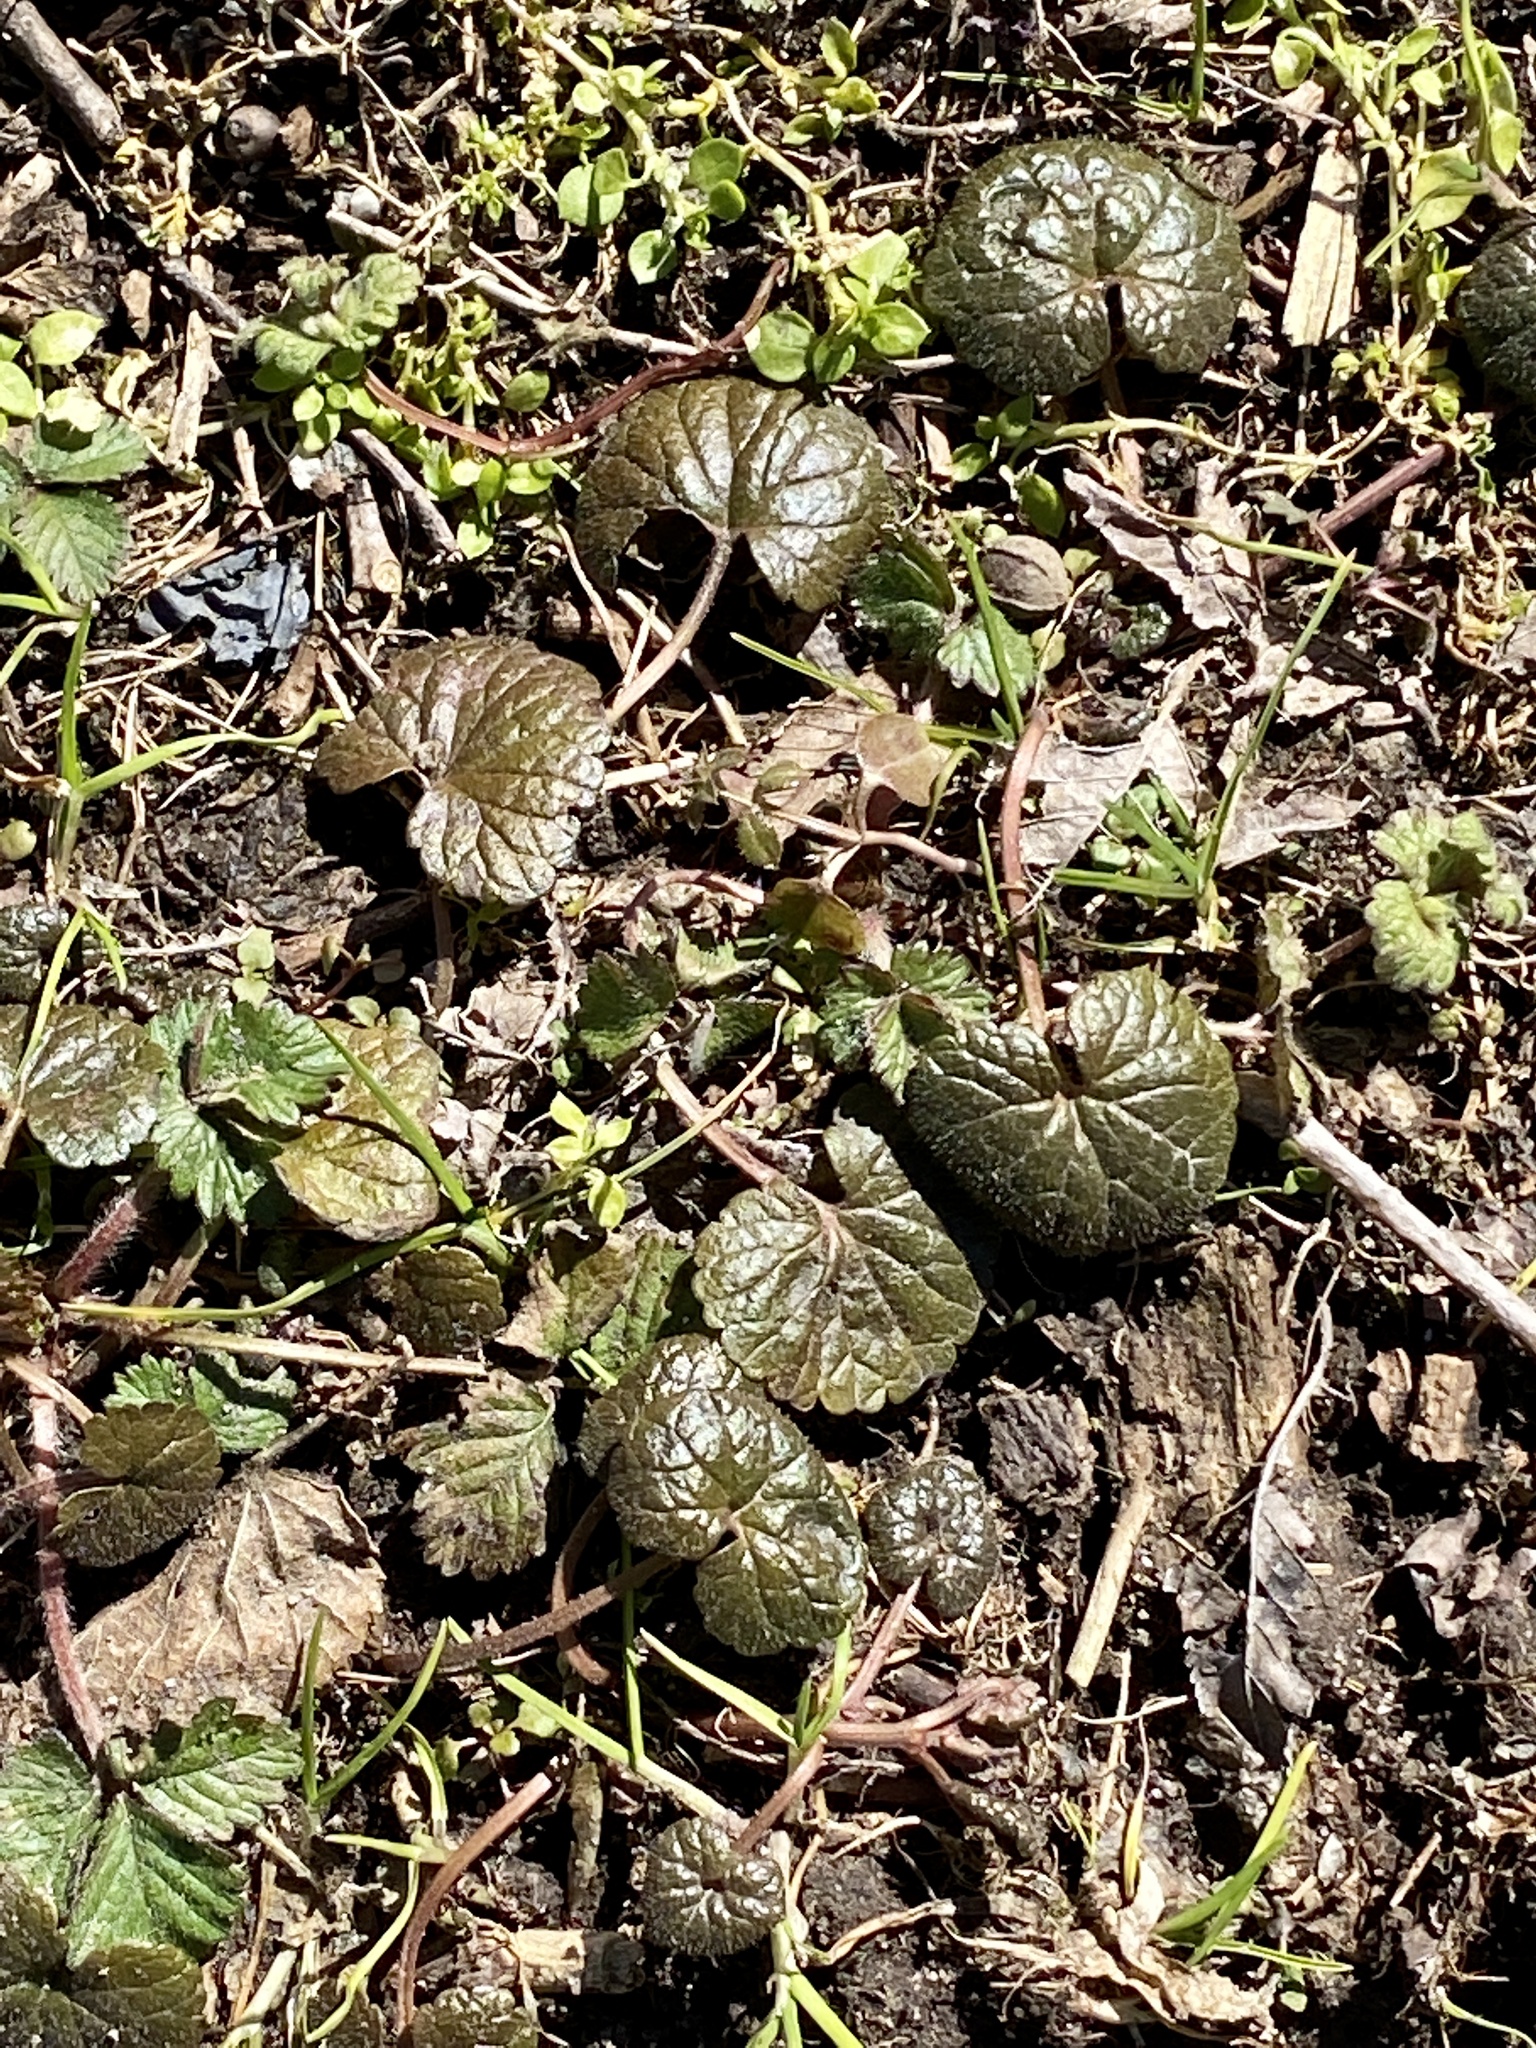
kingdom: Plantae
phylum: Tracheophyta
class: Magnoliopsida
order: Lamiales
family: Lamiaceae
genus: Glechoma
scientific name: Glechoma hederacea
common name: Ground ivy
